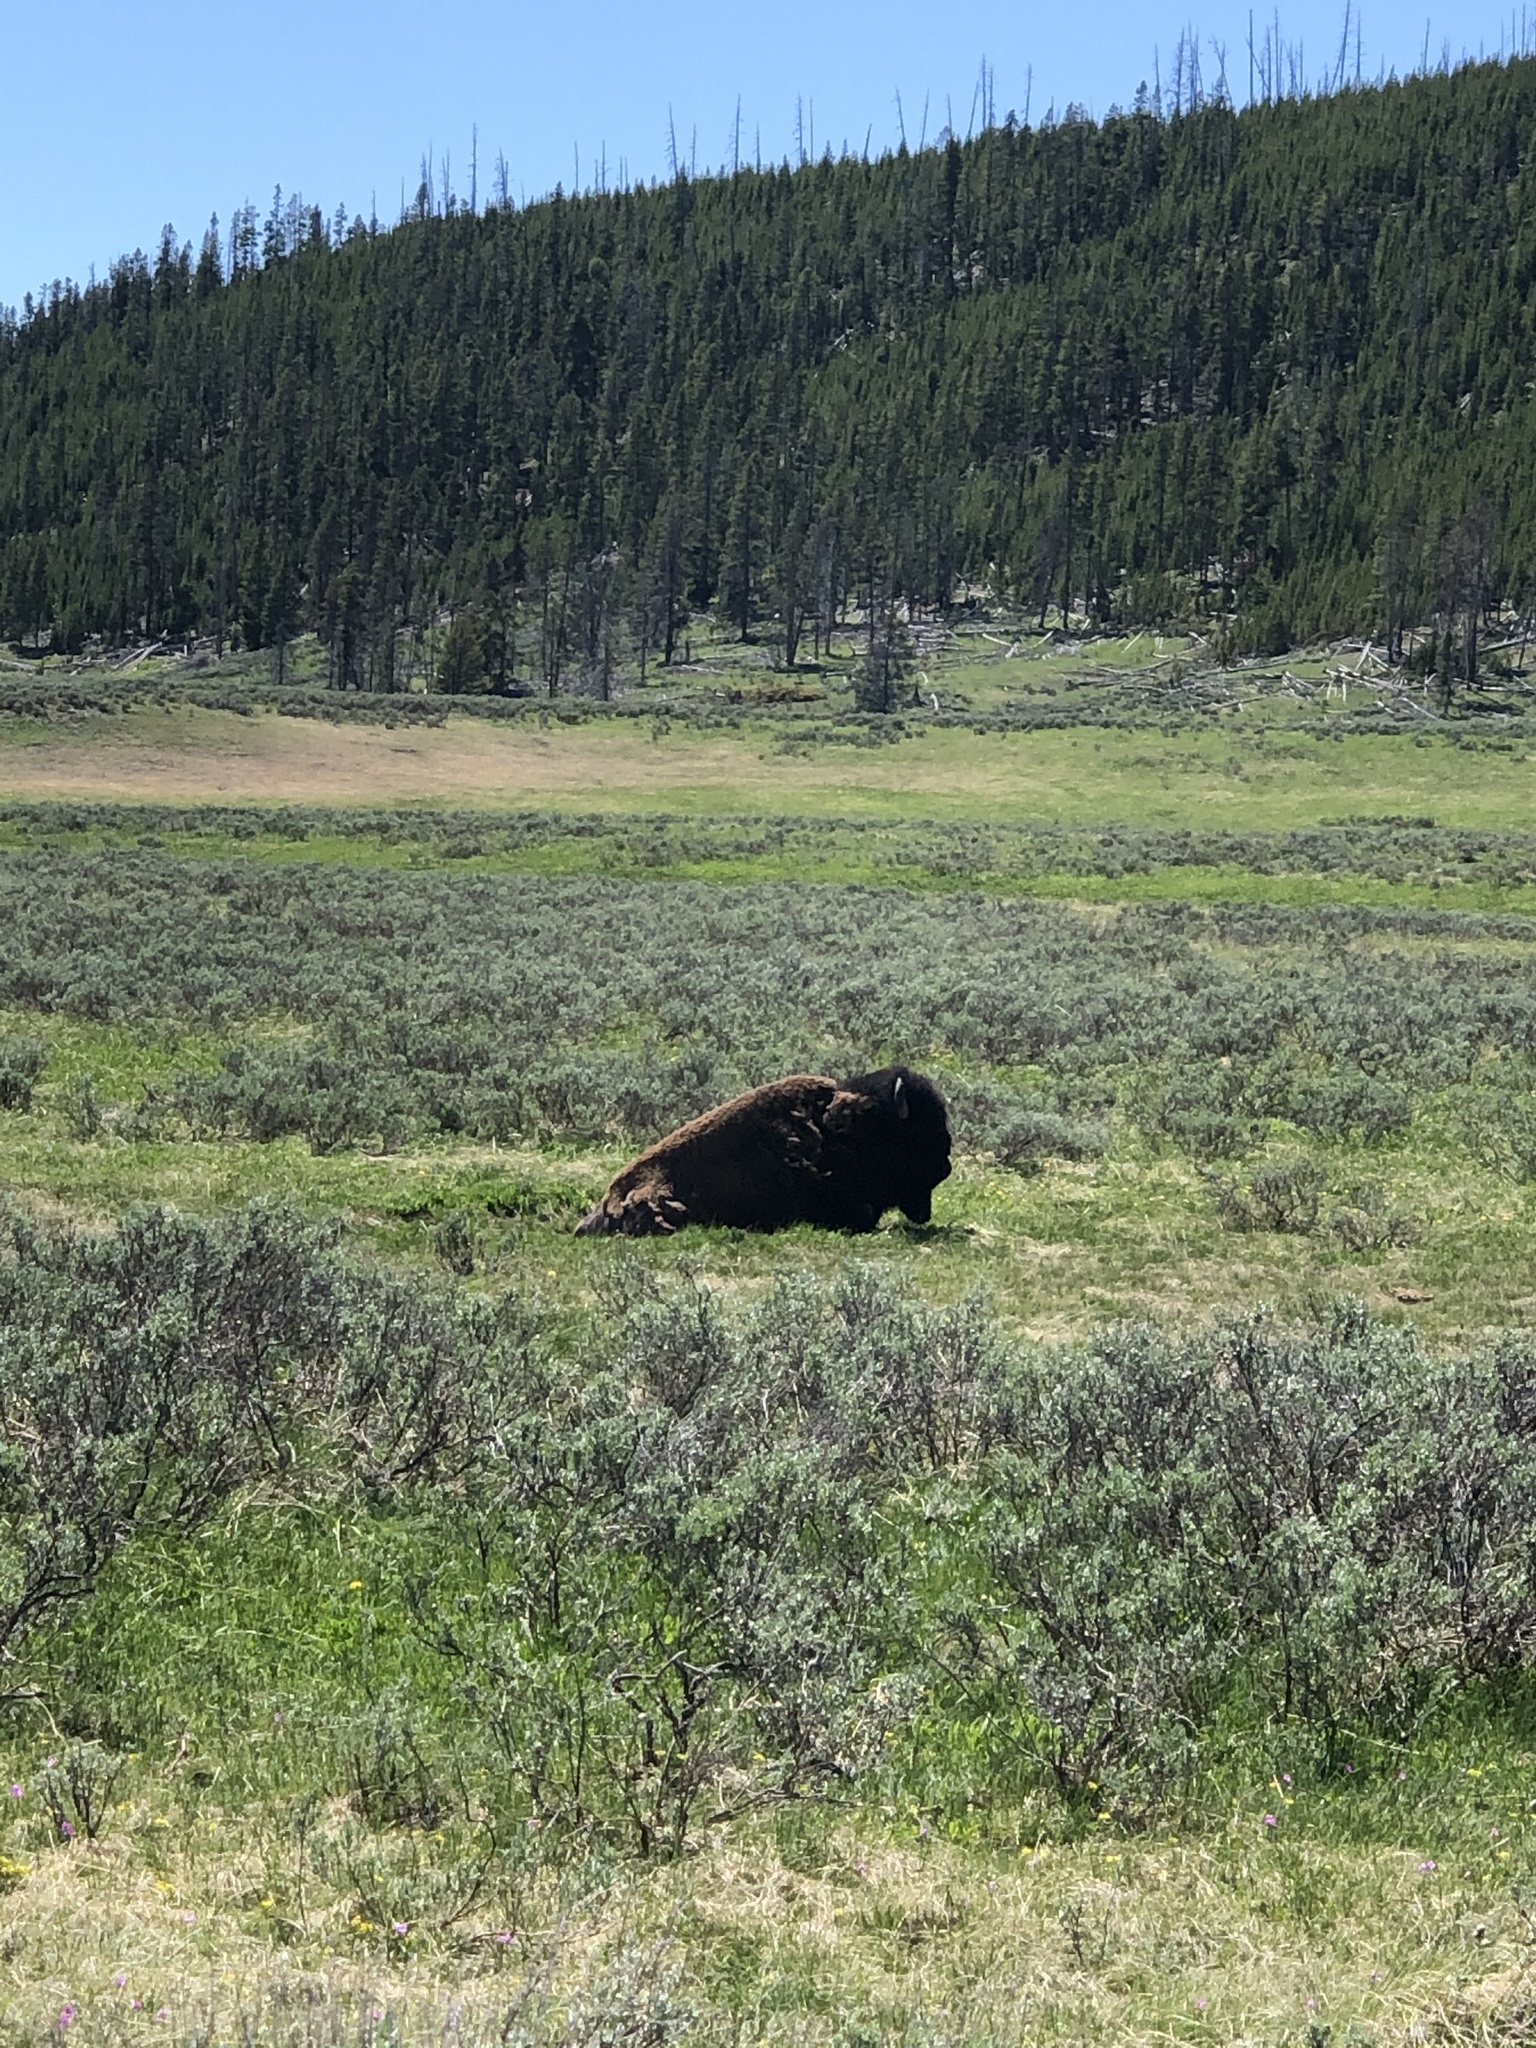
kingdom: Animalia
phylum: Chordata
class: Mammalia
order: Artiodactyla
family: Bovidae
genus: Bison
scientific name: Bison bison
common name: American bison
